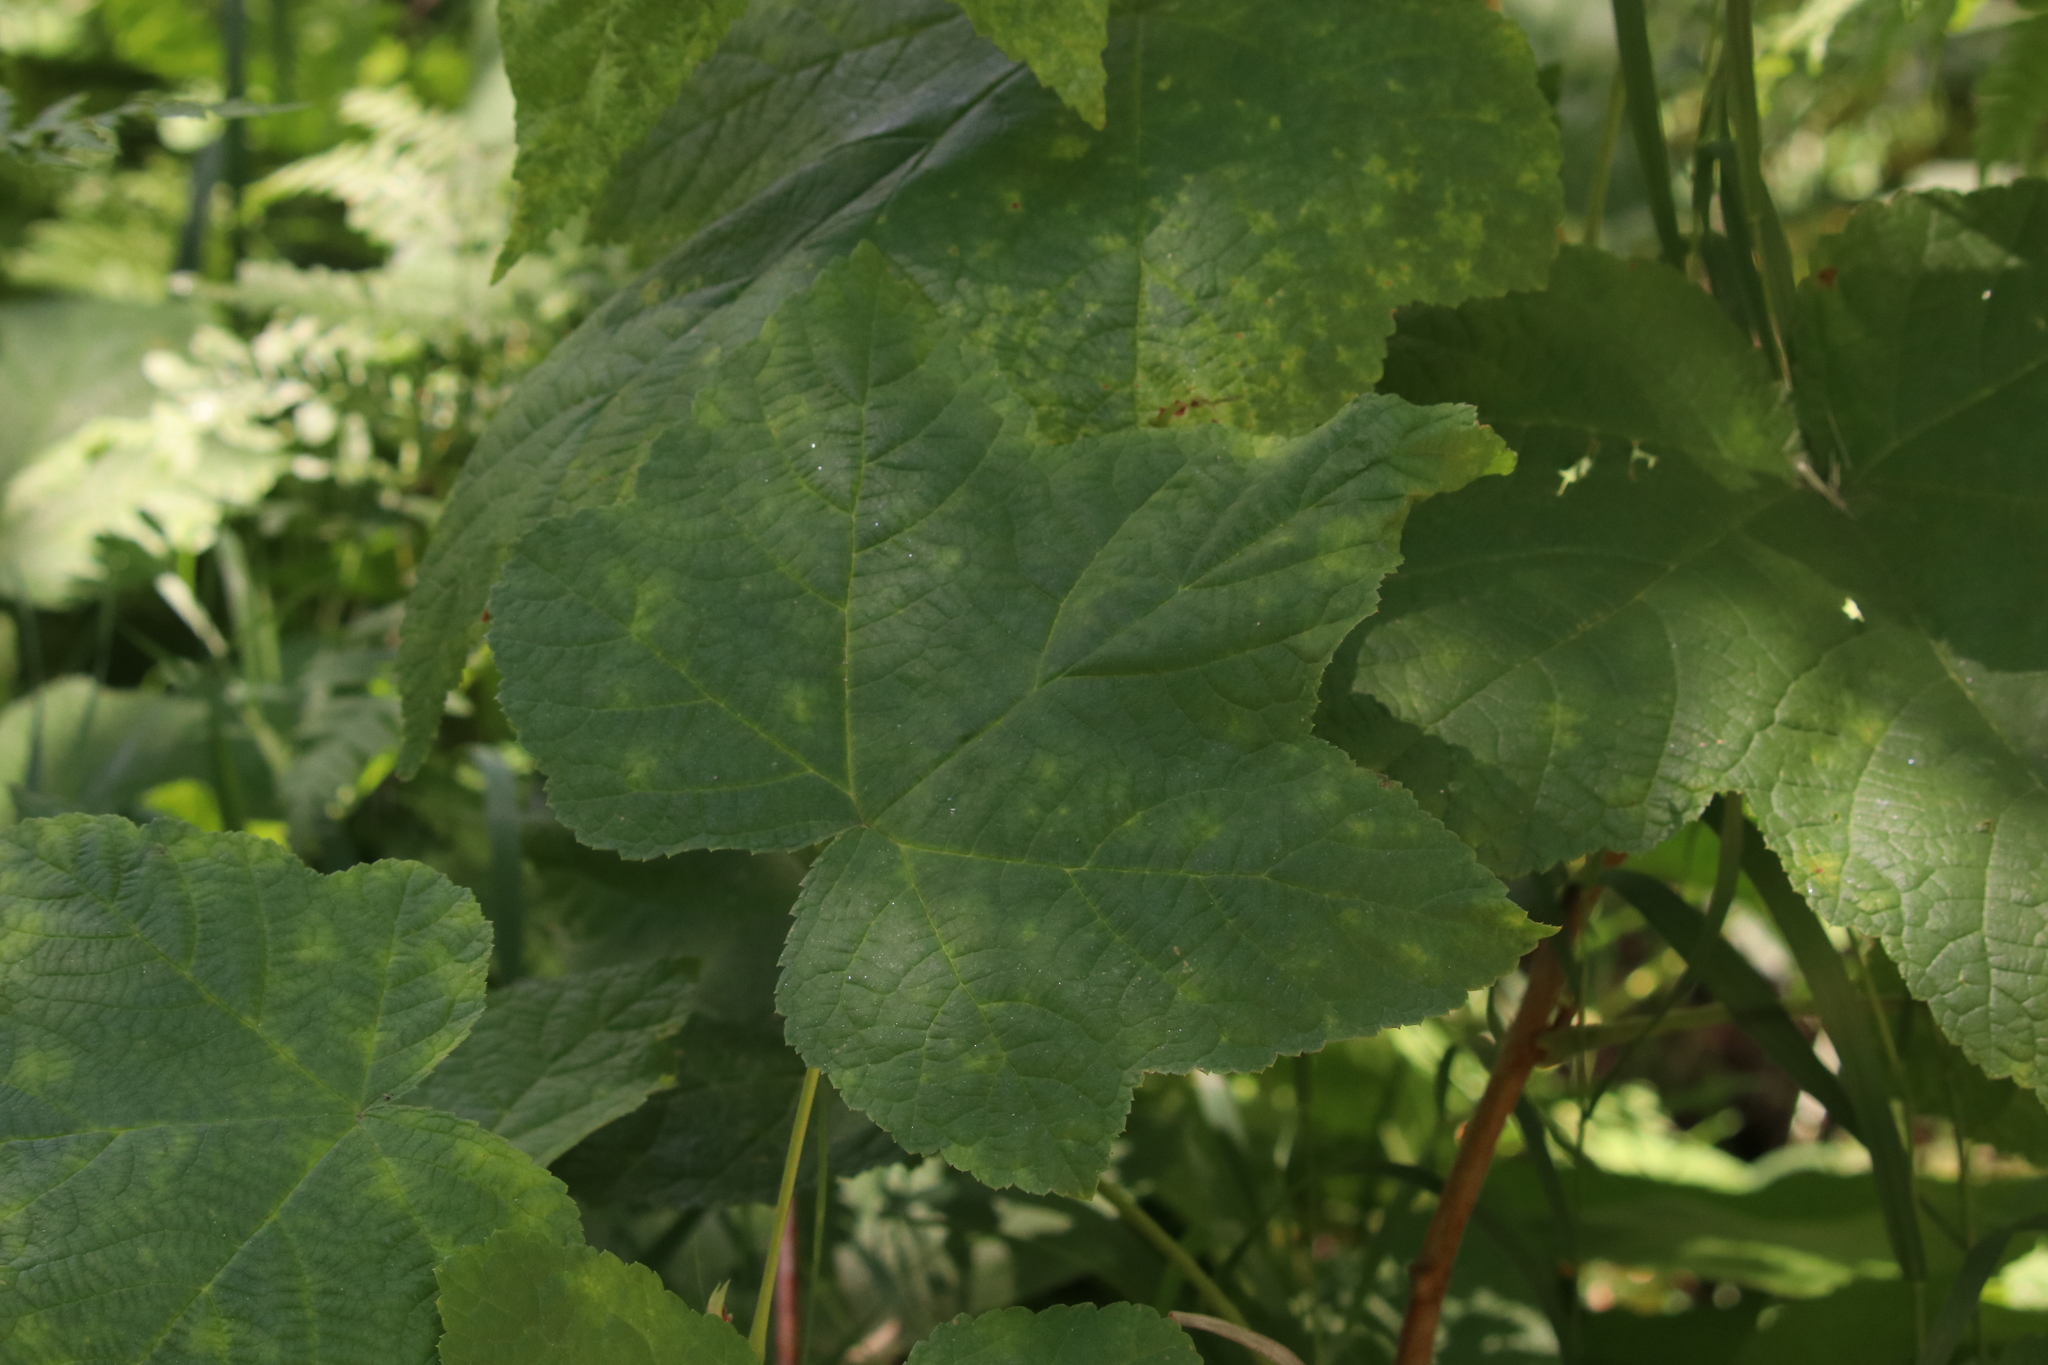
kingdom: Plantae
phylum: Tracheophyta
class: Magnoliopsida
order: Rosales
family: Rosaceae
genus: Rubus
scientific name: Rubus parviflorus
